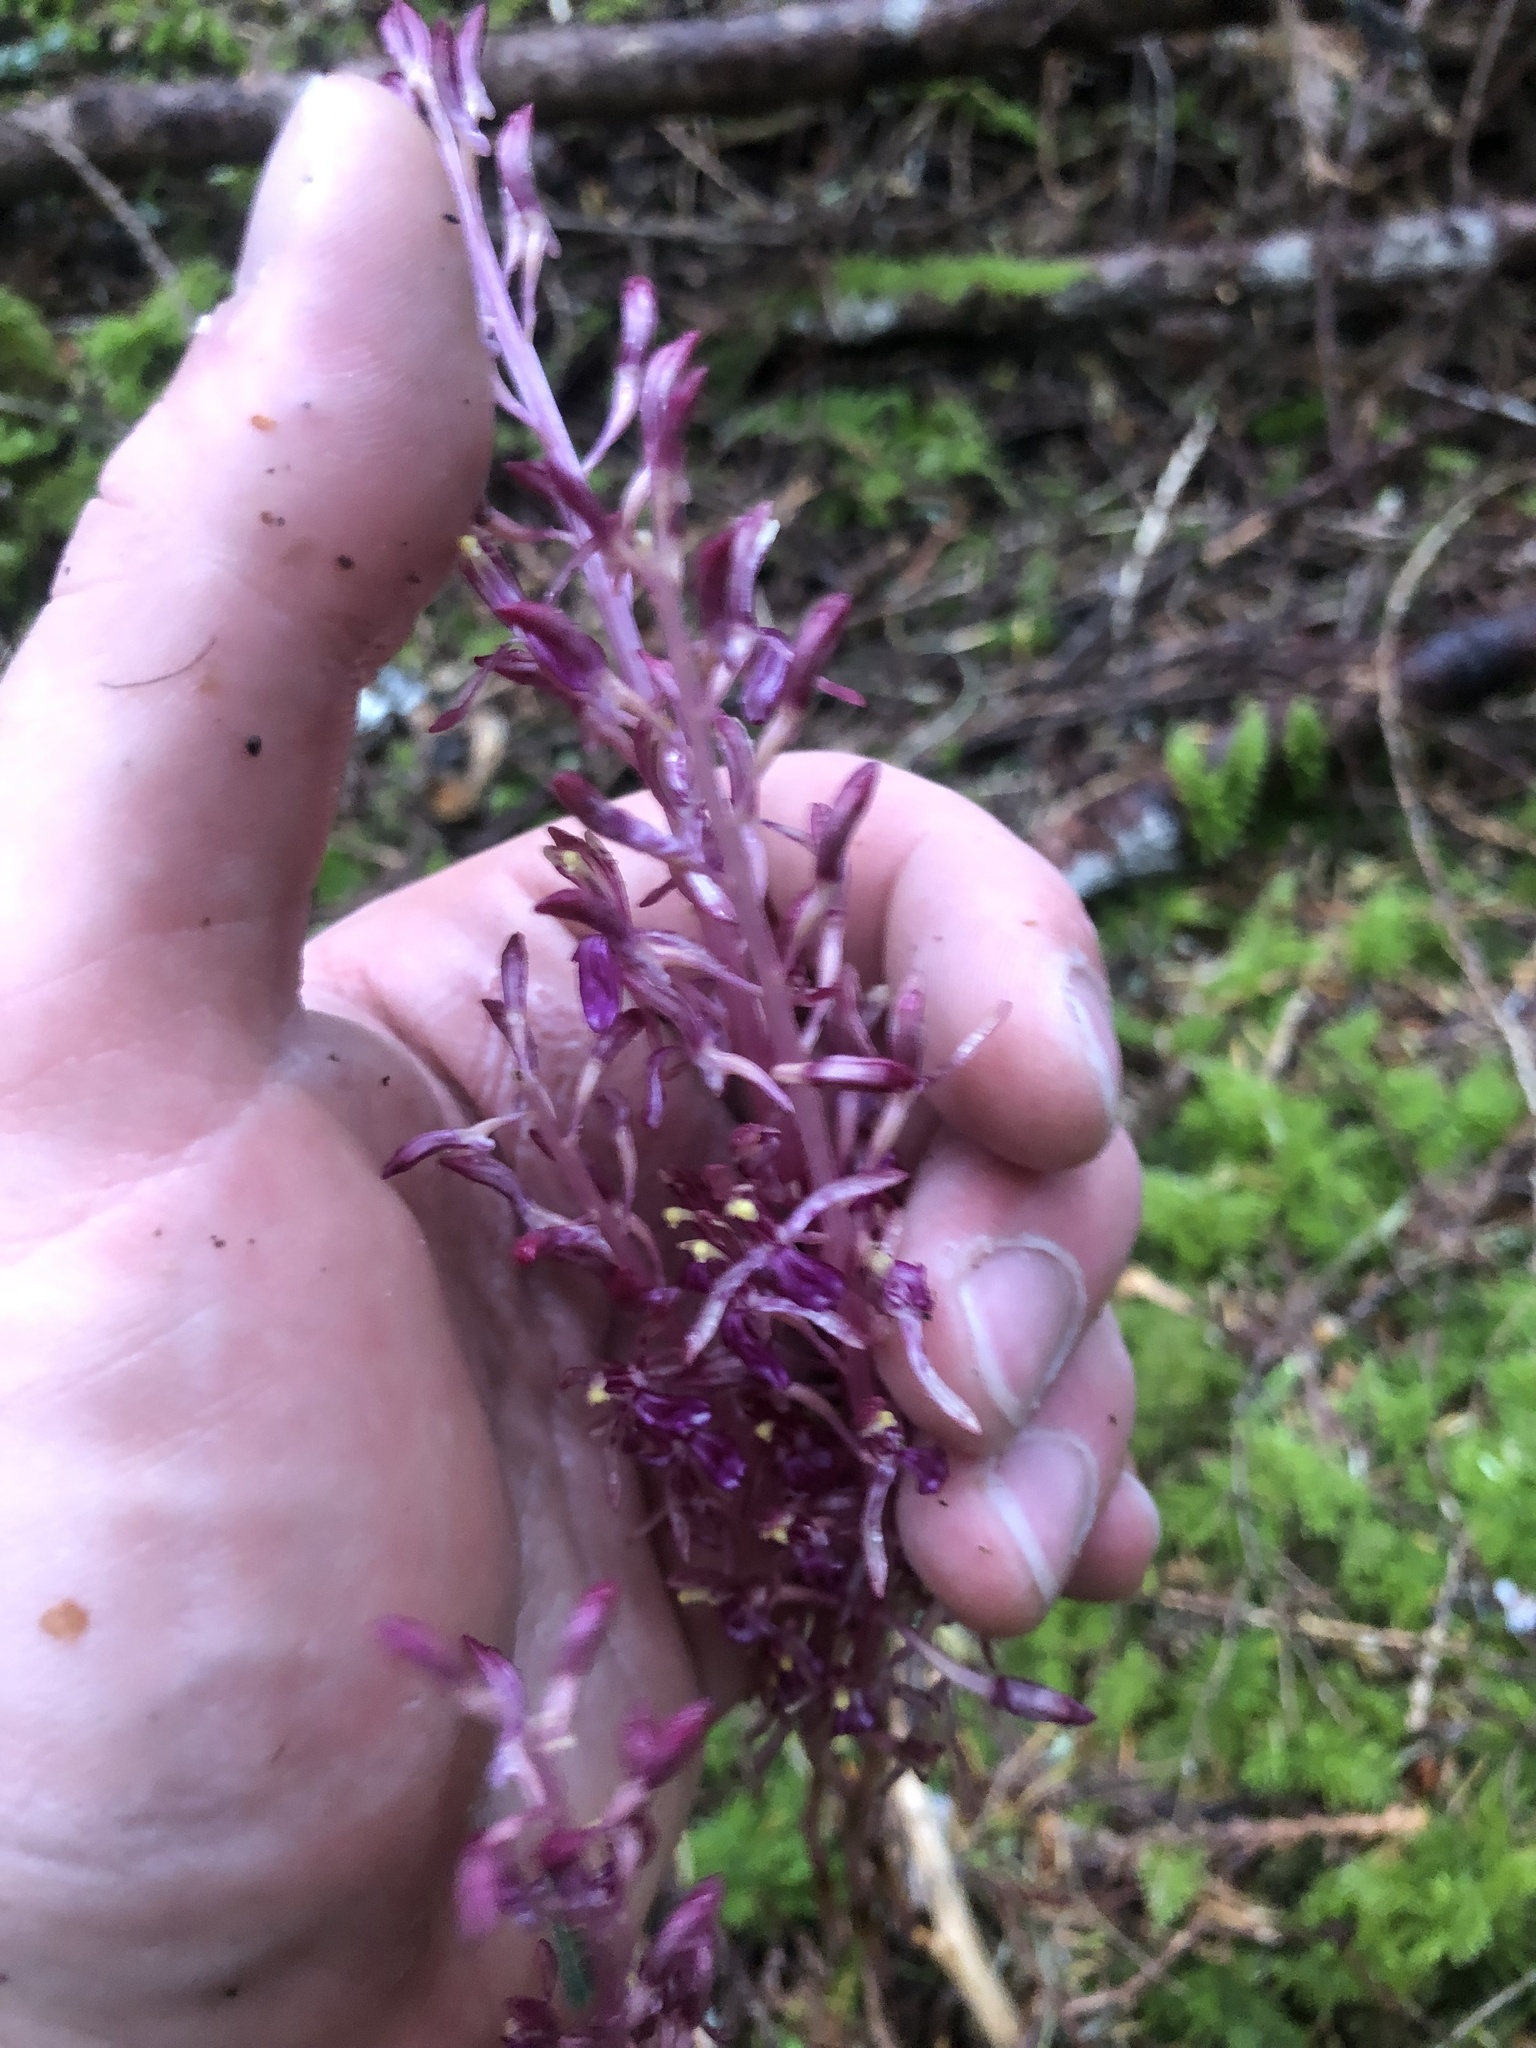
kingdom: Plantae
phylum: Tracheophyta
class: Liliopsida
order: Asparagales
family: Orchidaceae
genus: Corallorhiza
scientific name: Corallorhiza mertensiana
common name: Pacific coralroot
